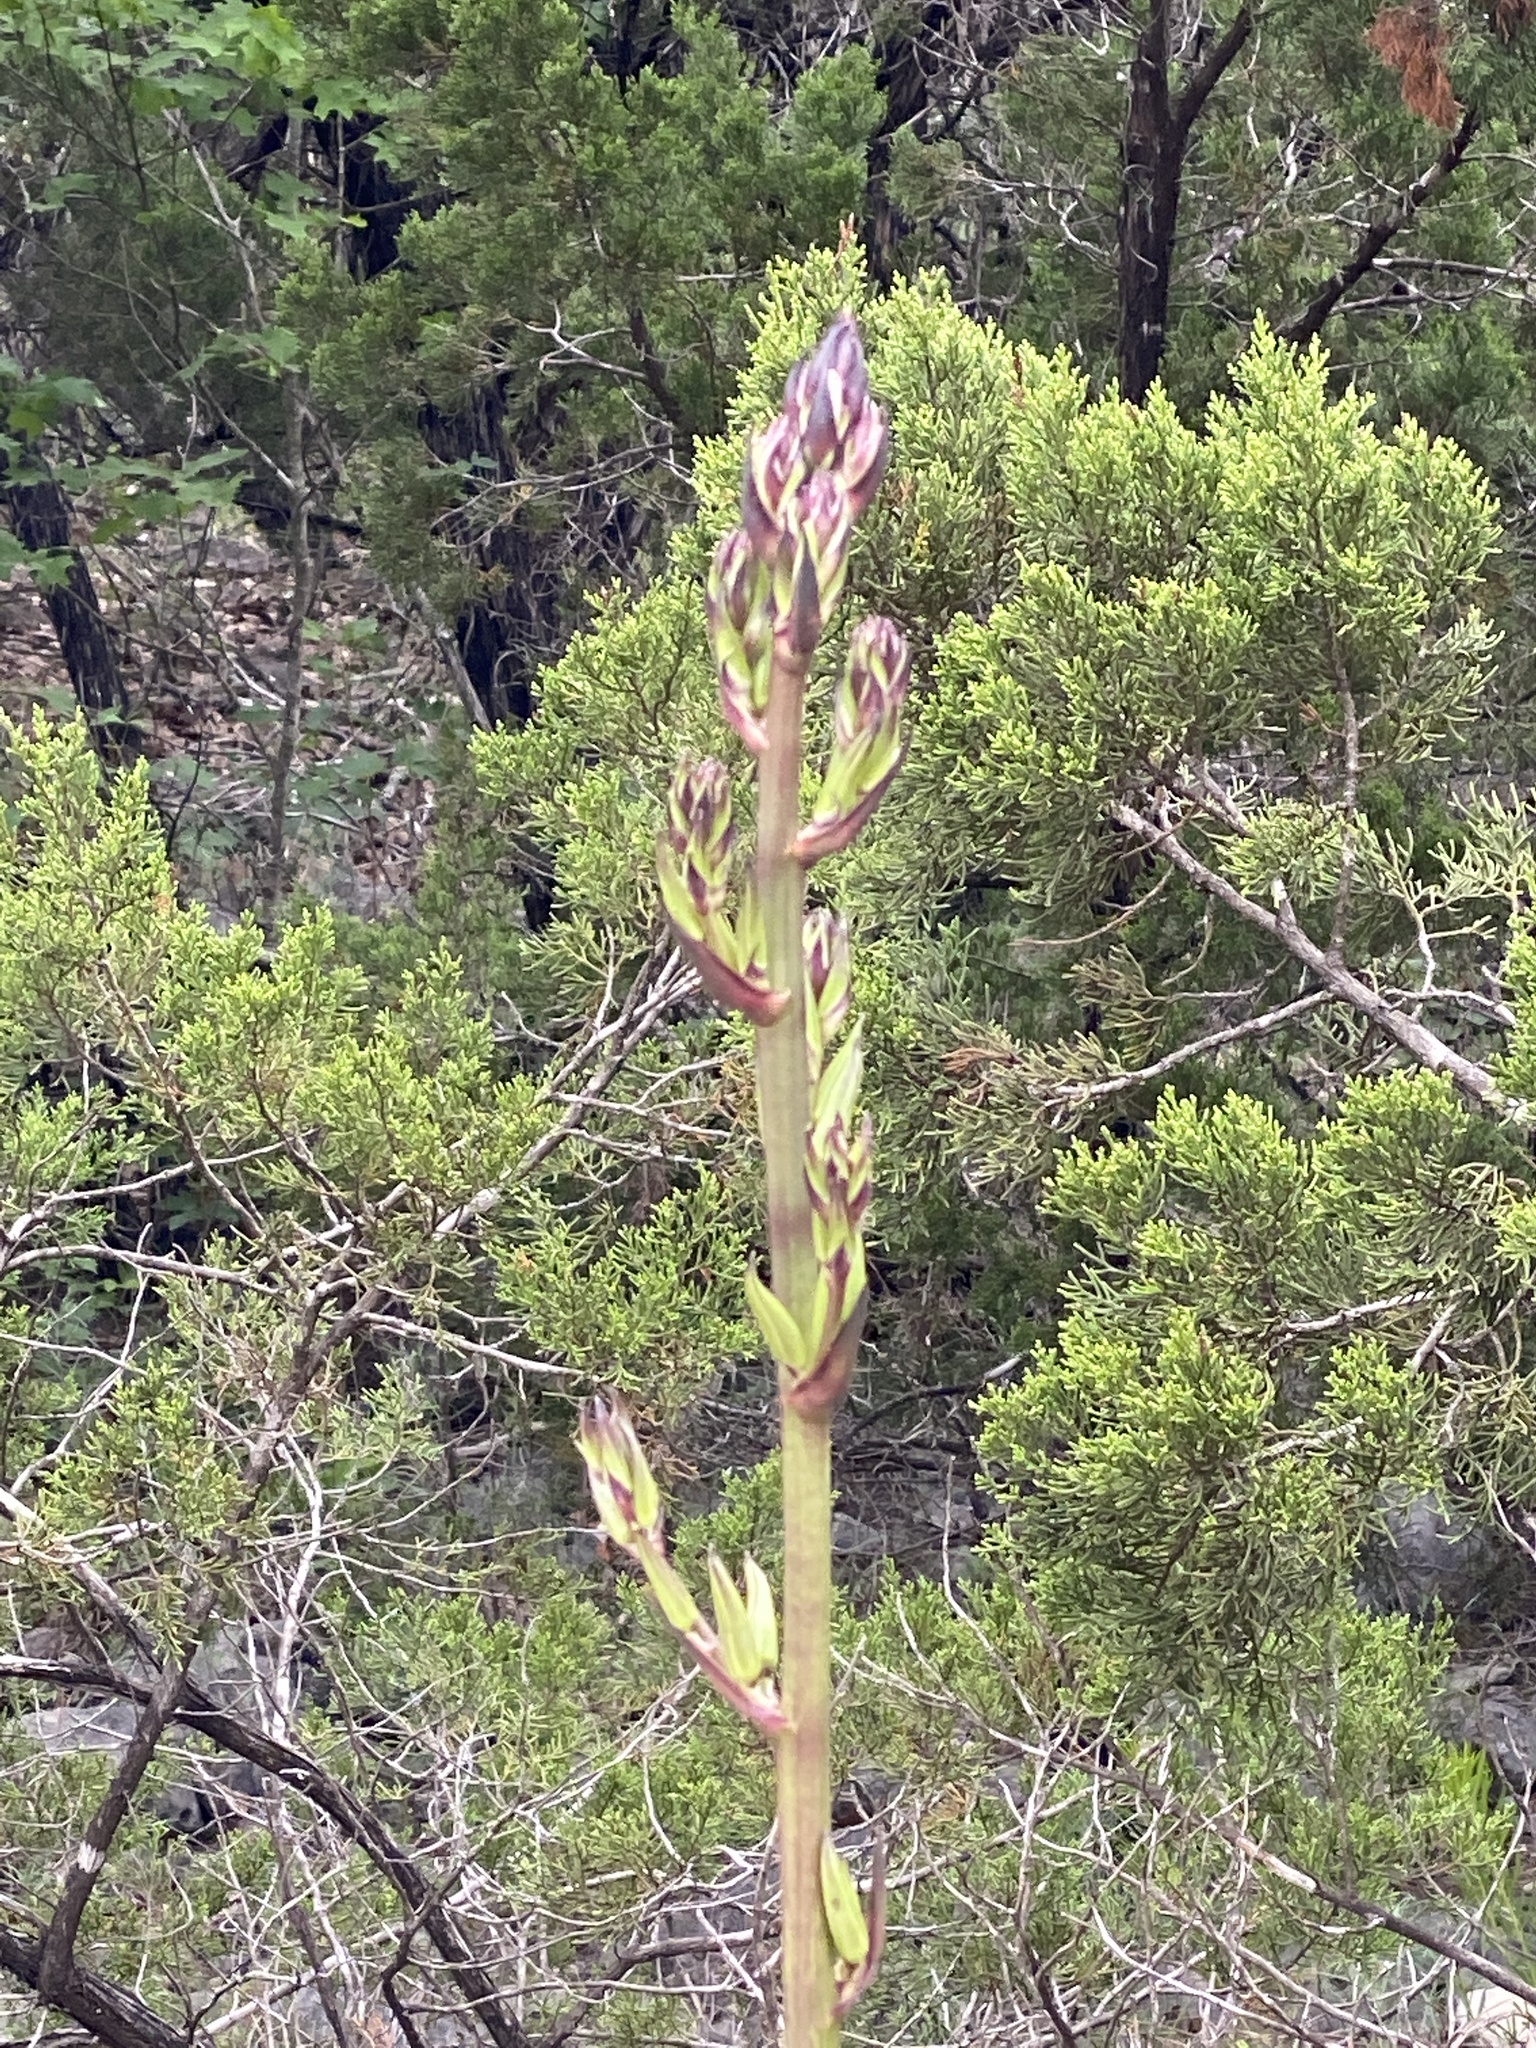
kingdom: Plantae
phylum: Tracheophyta
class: Liliopsida
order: Asparagales
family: Asparagaceae
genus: Yucca
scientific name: Yucca rupicola
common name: Twisted-leaf spanish-dagger
